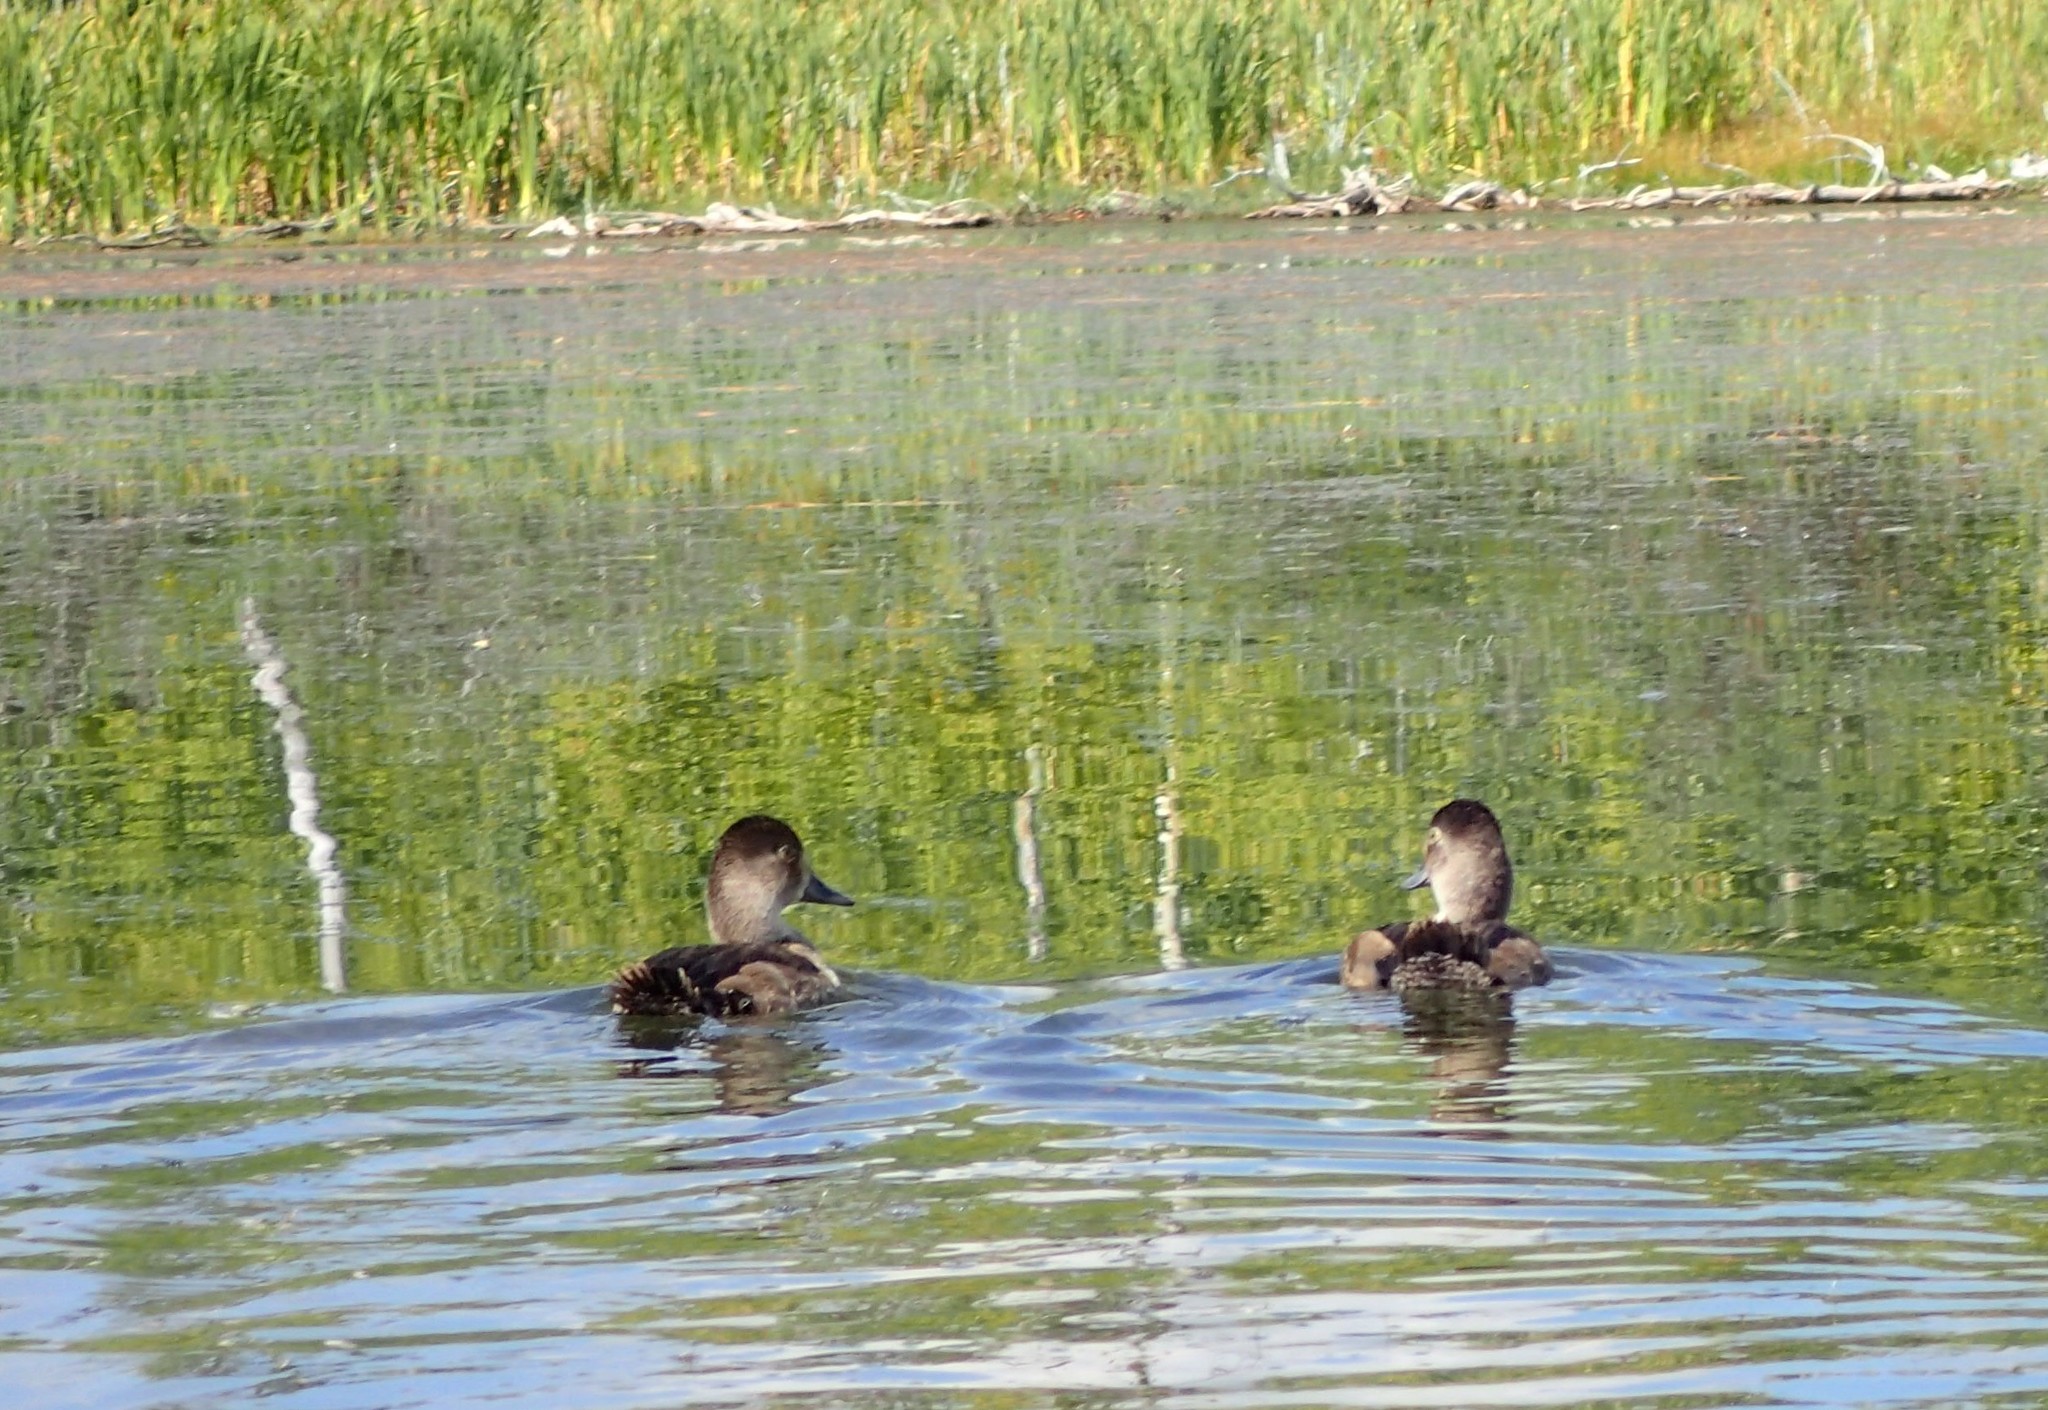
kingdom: Animalia
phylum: Chordata
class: Aves
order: Anseriformes
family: Anatidae
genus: Aythya
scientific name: Aythya collaris
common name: Ring-necked duck
